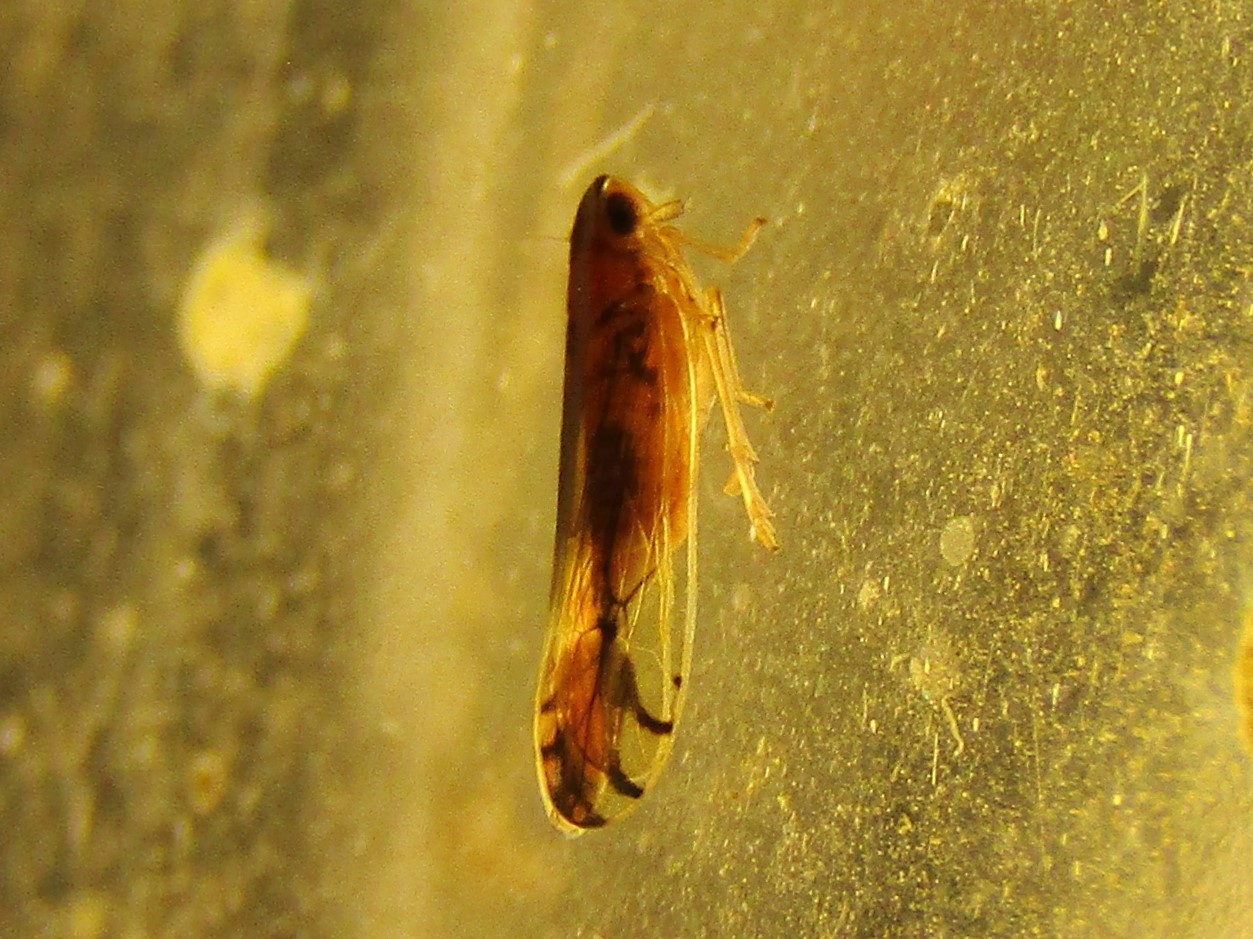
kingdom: Animalia
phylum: Arthropoda
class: Insecta
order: Hemiptera
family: Delphacidae
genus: Stenocranus
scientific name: Stenocranus vittatus
